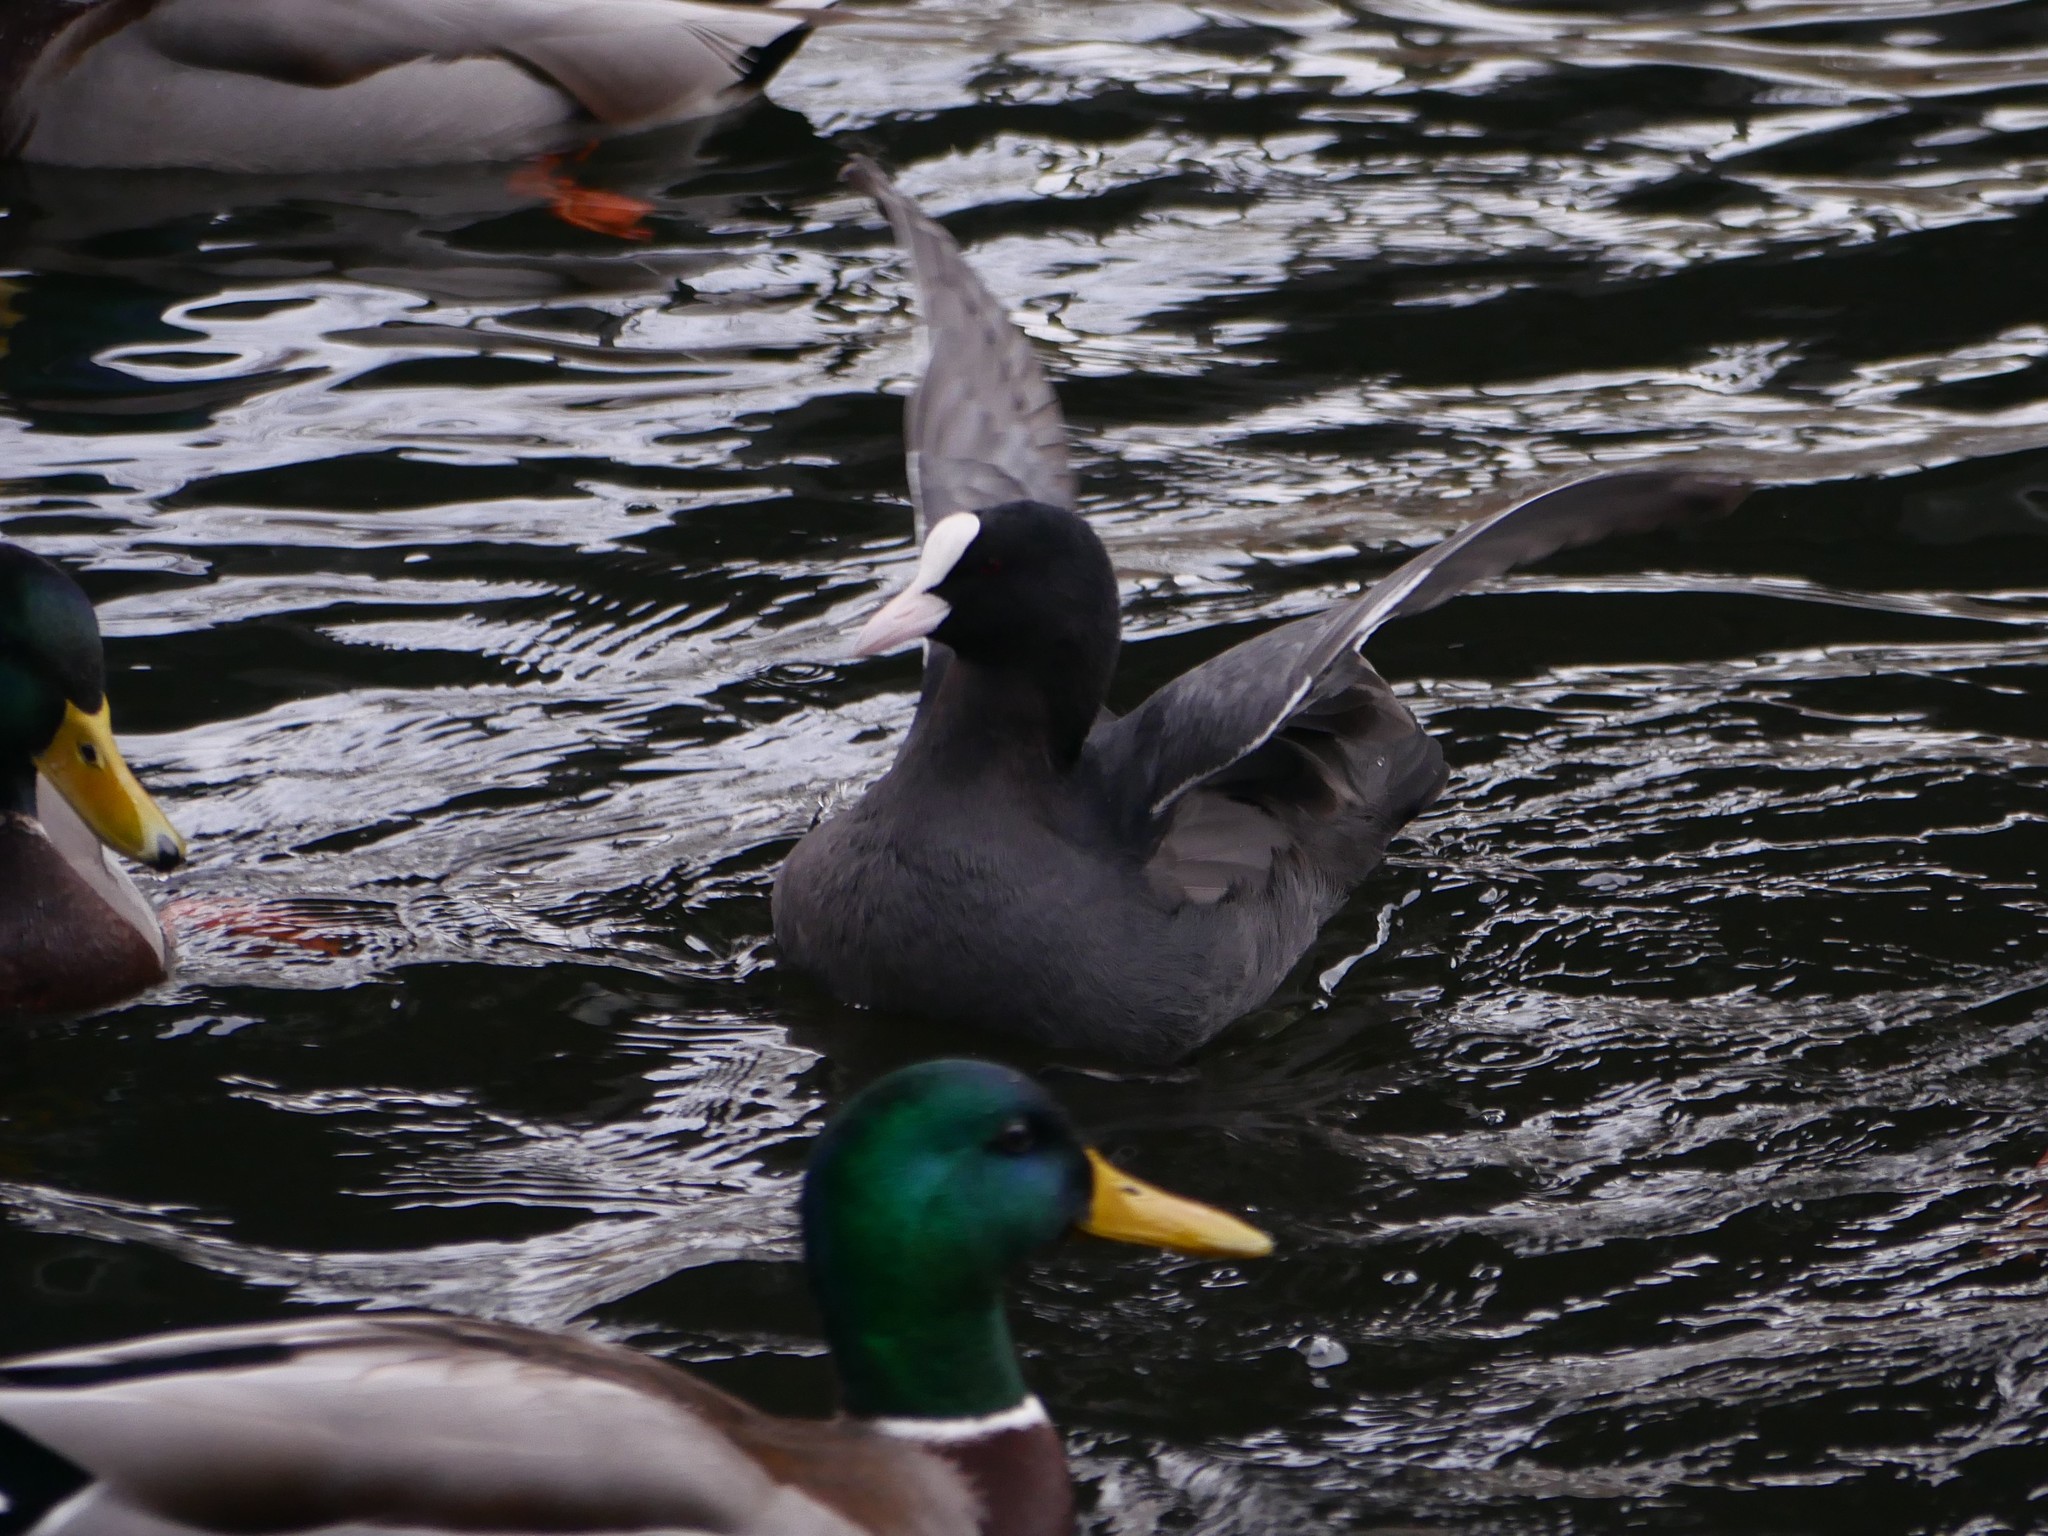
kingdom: Animalia
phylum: Chordata
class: Aves
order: Gruiformes
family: Rallidae
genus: Fulica
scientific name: Fulica atra
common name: Eurasian coot
